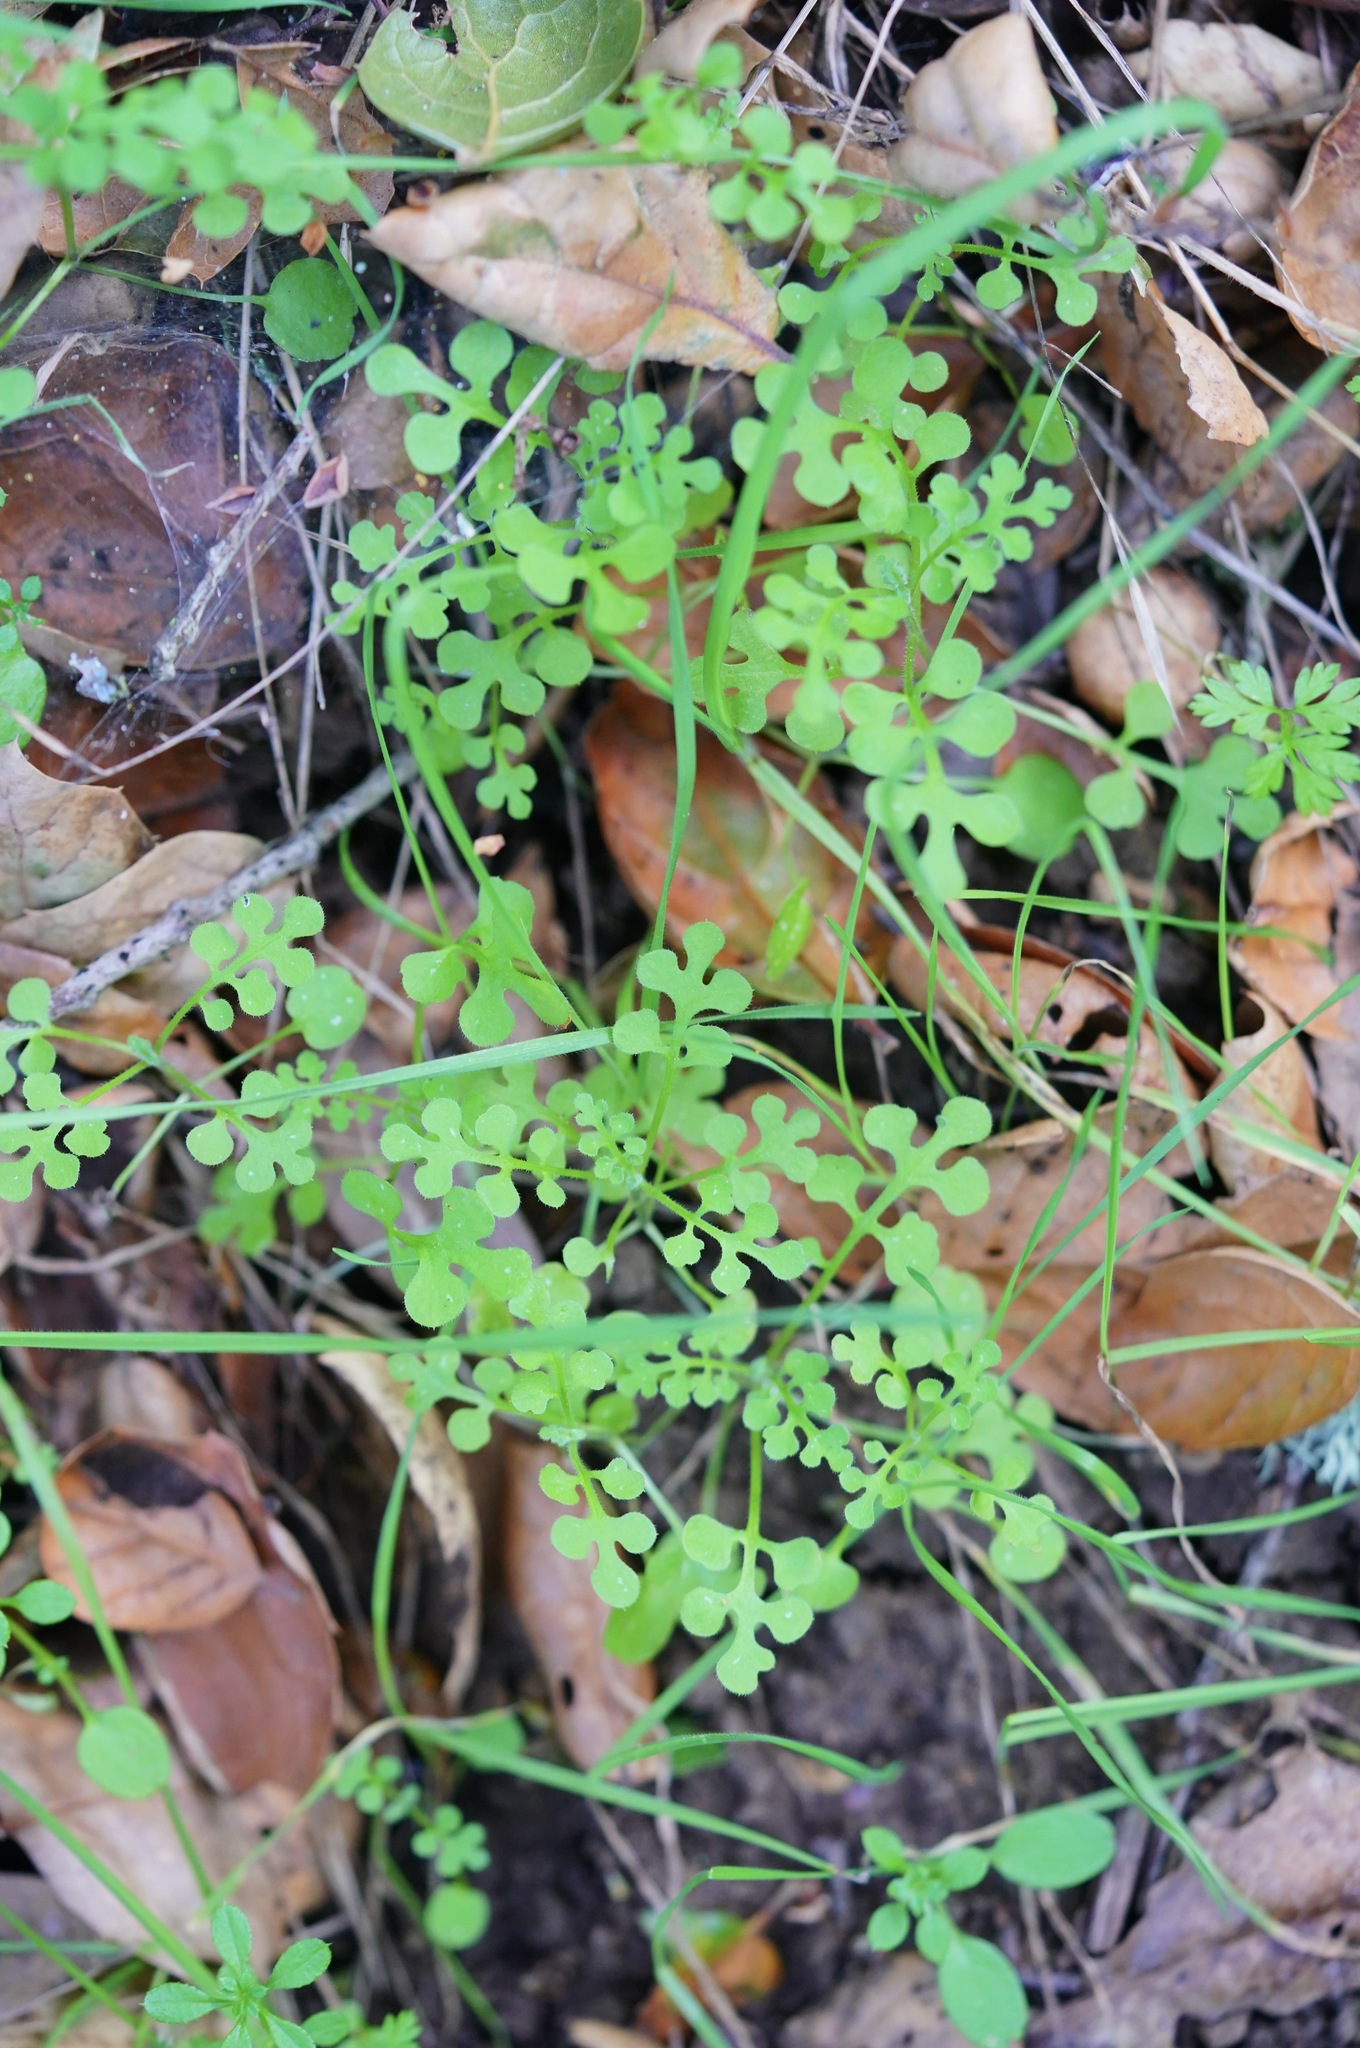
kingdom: Plantae
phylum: Tracheophyta
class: Magnoliopsida
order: Boraginales
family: Hydrophyllaceae
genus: Nemophila
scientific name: Nemophila heterophylla
